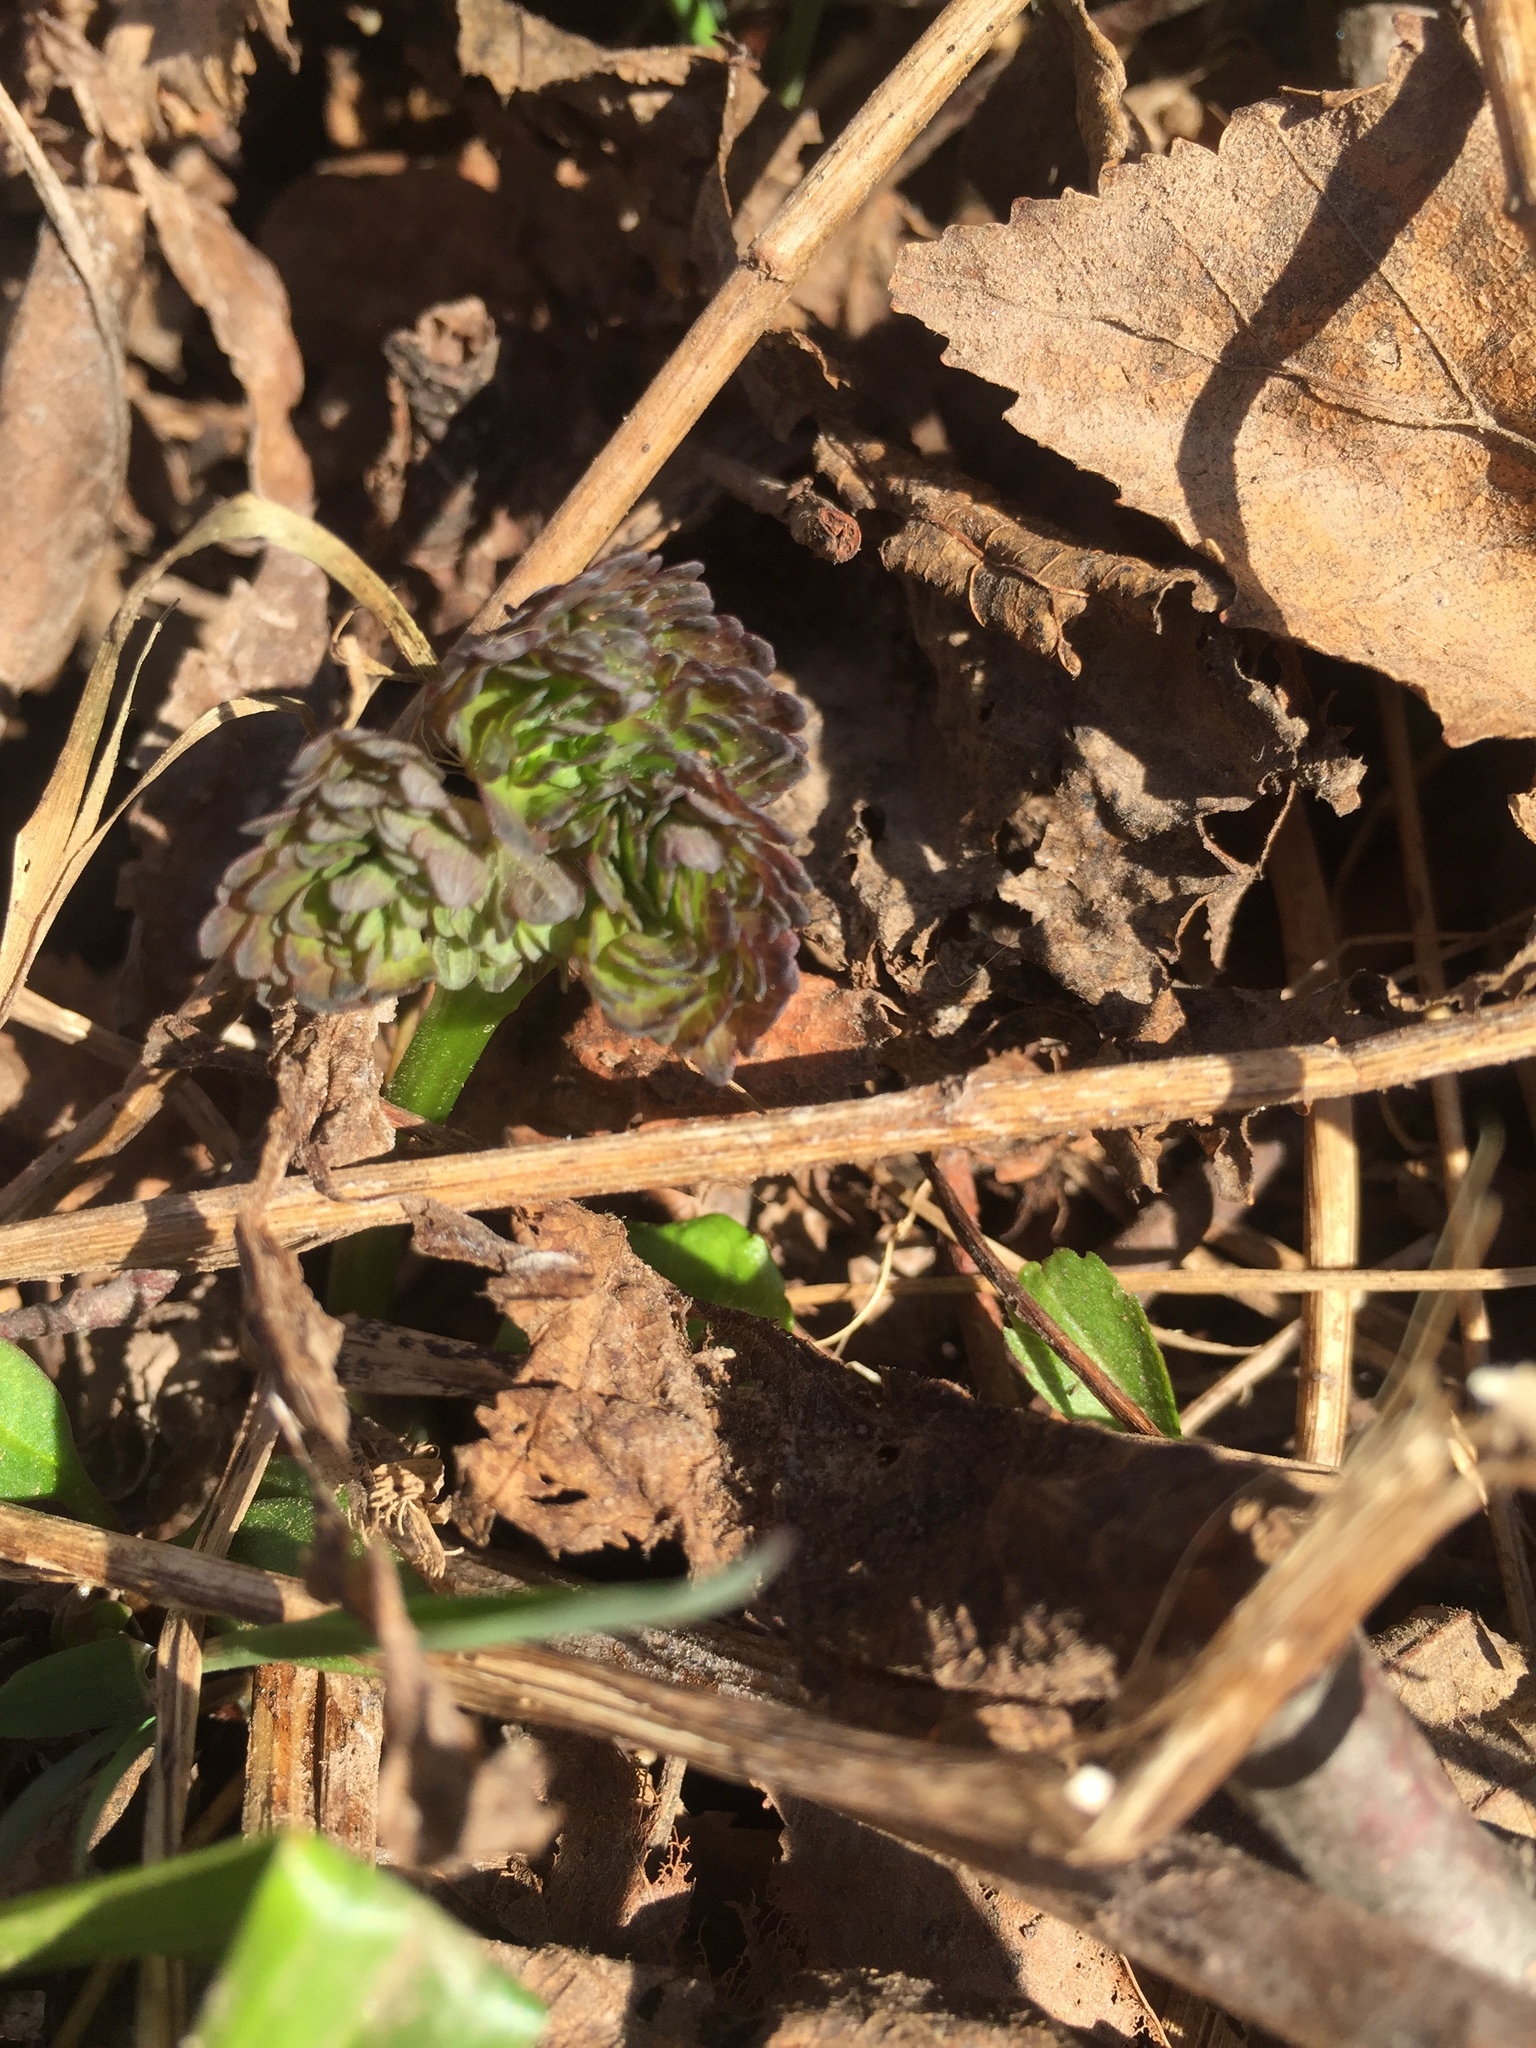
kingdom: Plantae
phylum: Tracheophyta
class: Magnoliopsida
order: Ranunculales
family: Ranunculaceae
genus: Thalictrum
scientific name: Thalictrum dioicum
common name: Early meadow-rue
